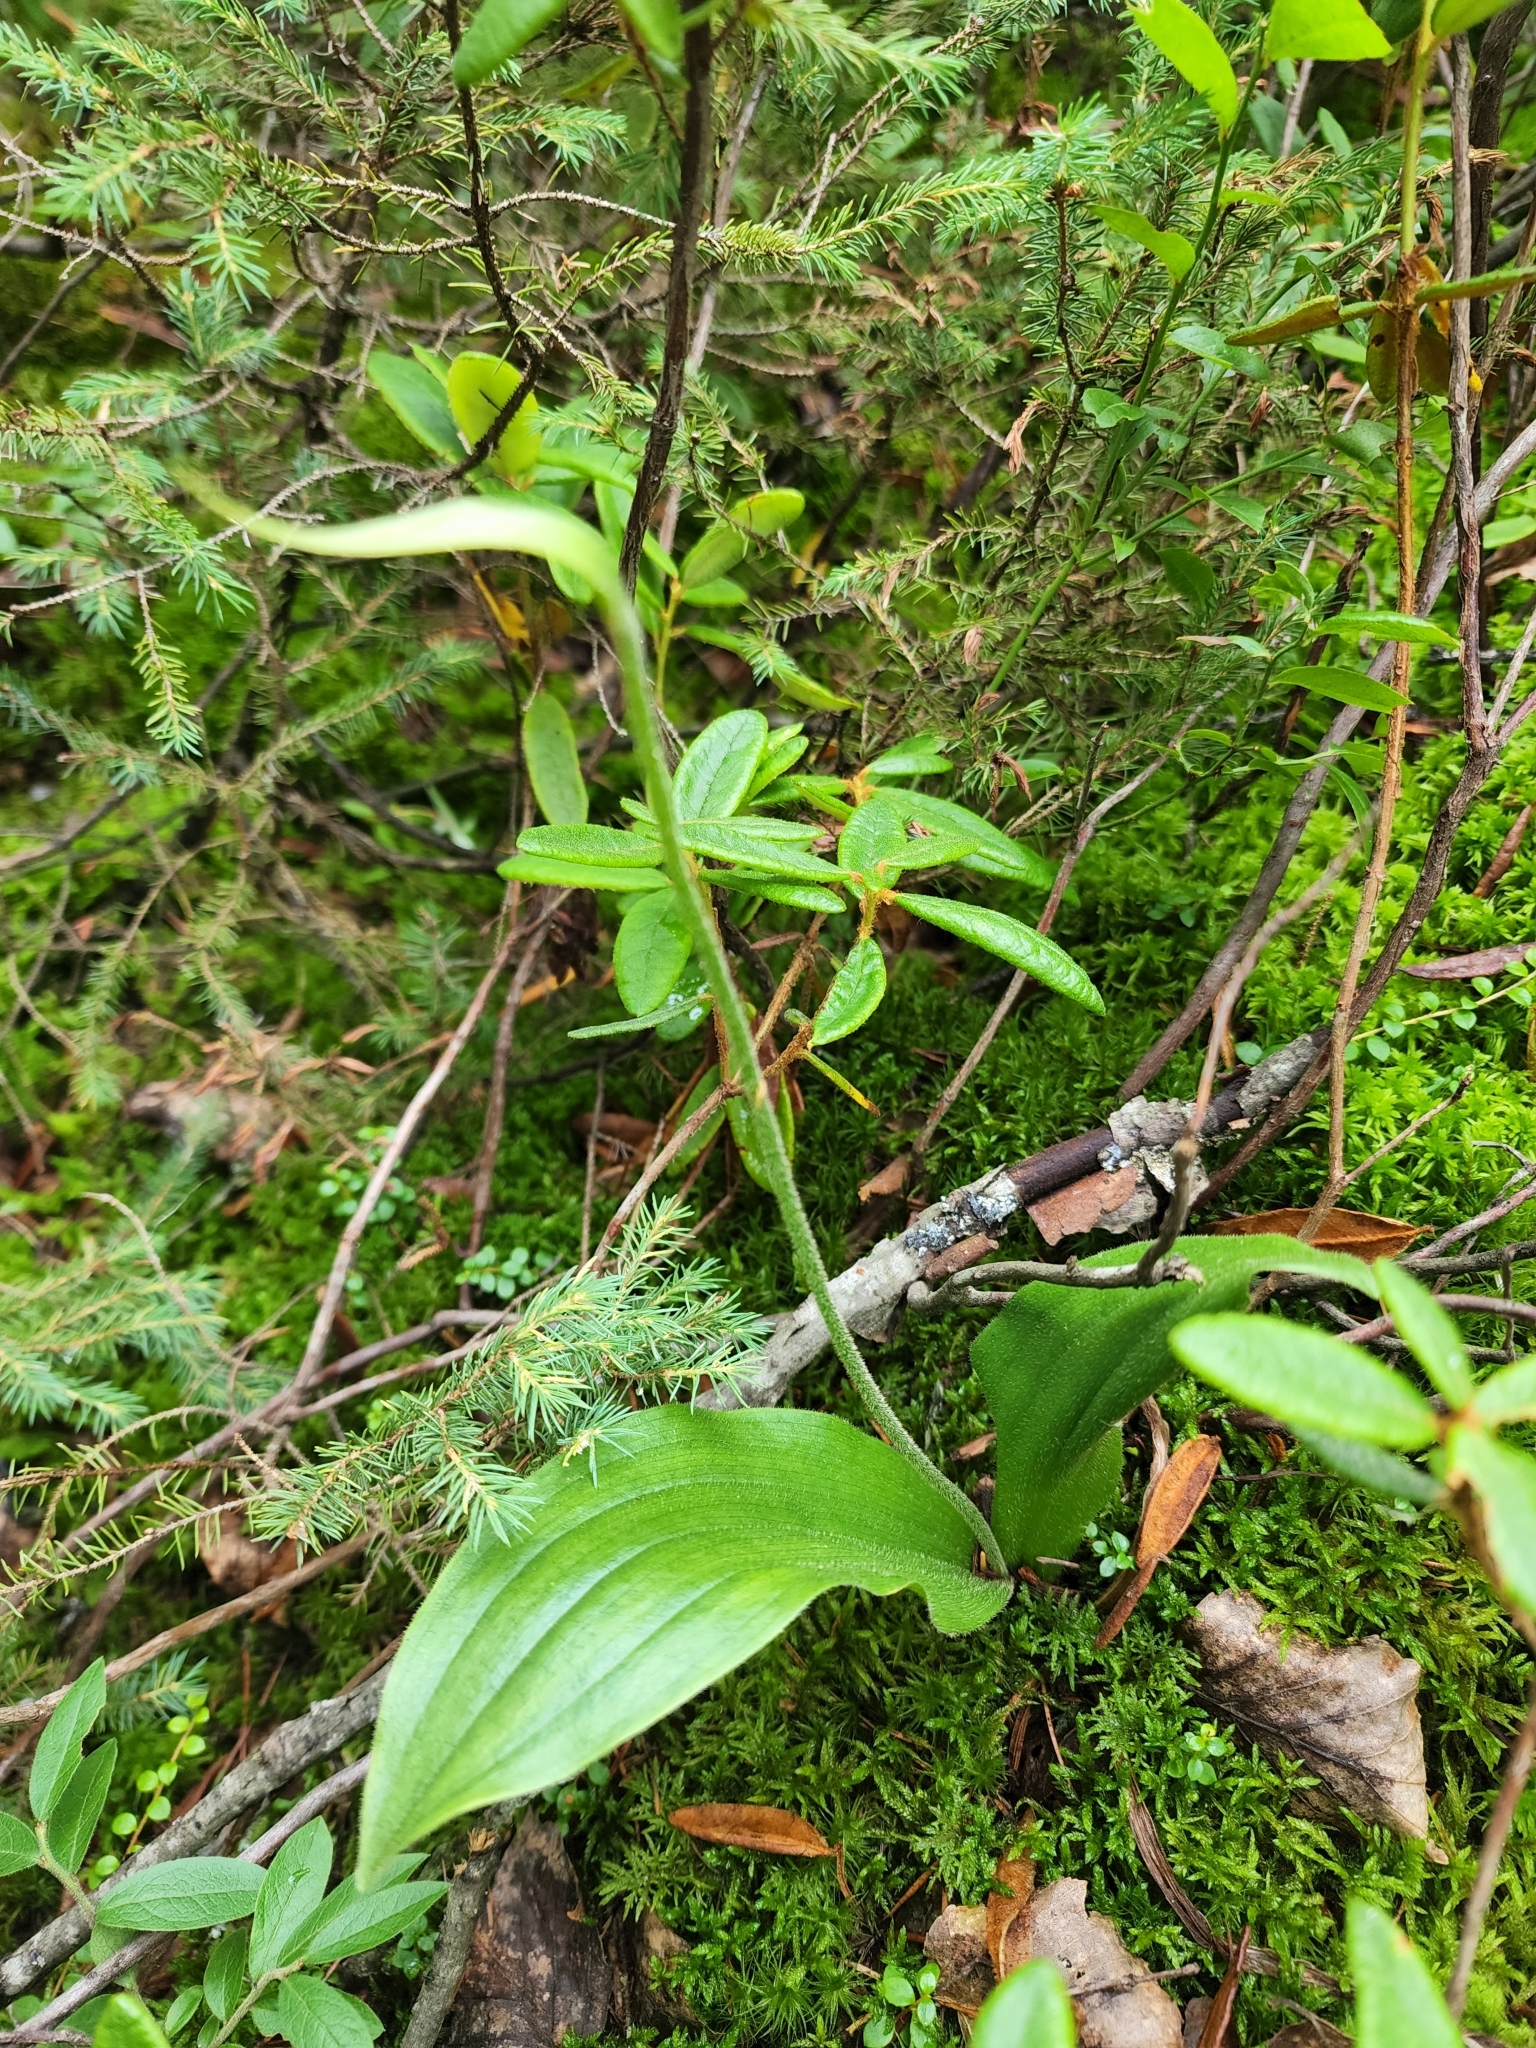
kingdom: Plantae
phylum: Tracheophyta
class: Liliopsida
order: Asparagales
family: Orchidaceae
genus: Cypripedium
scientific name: Cypripedium acaule
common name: Pink lady's-slipper
